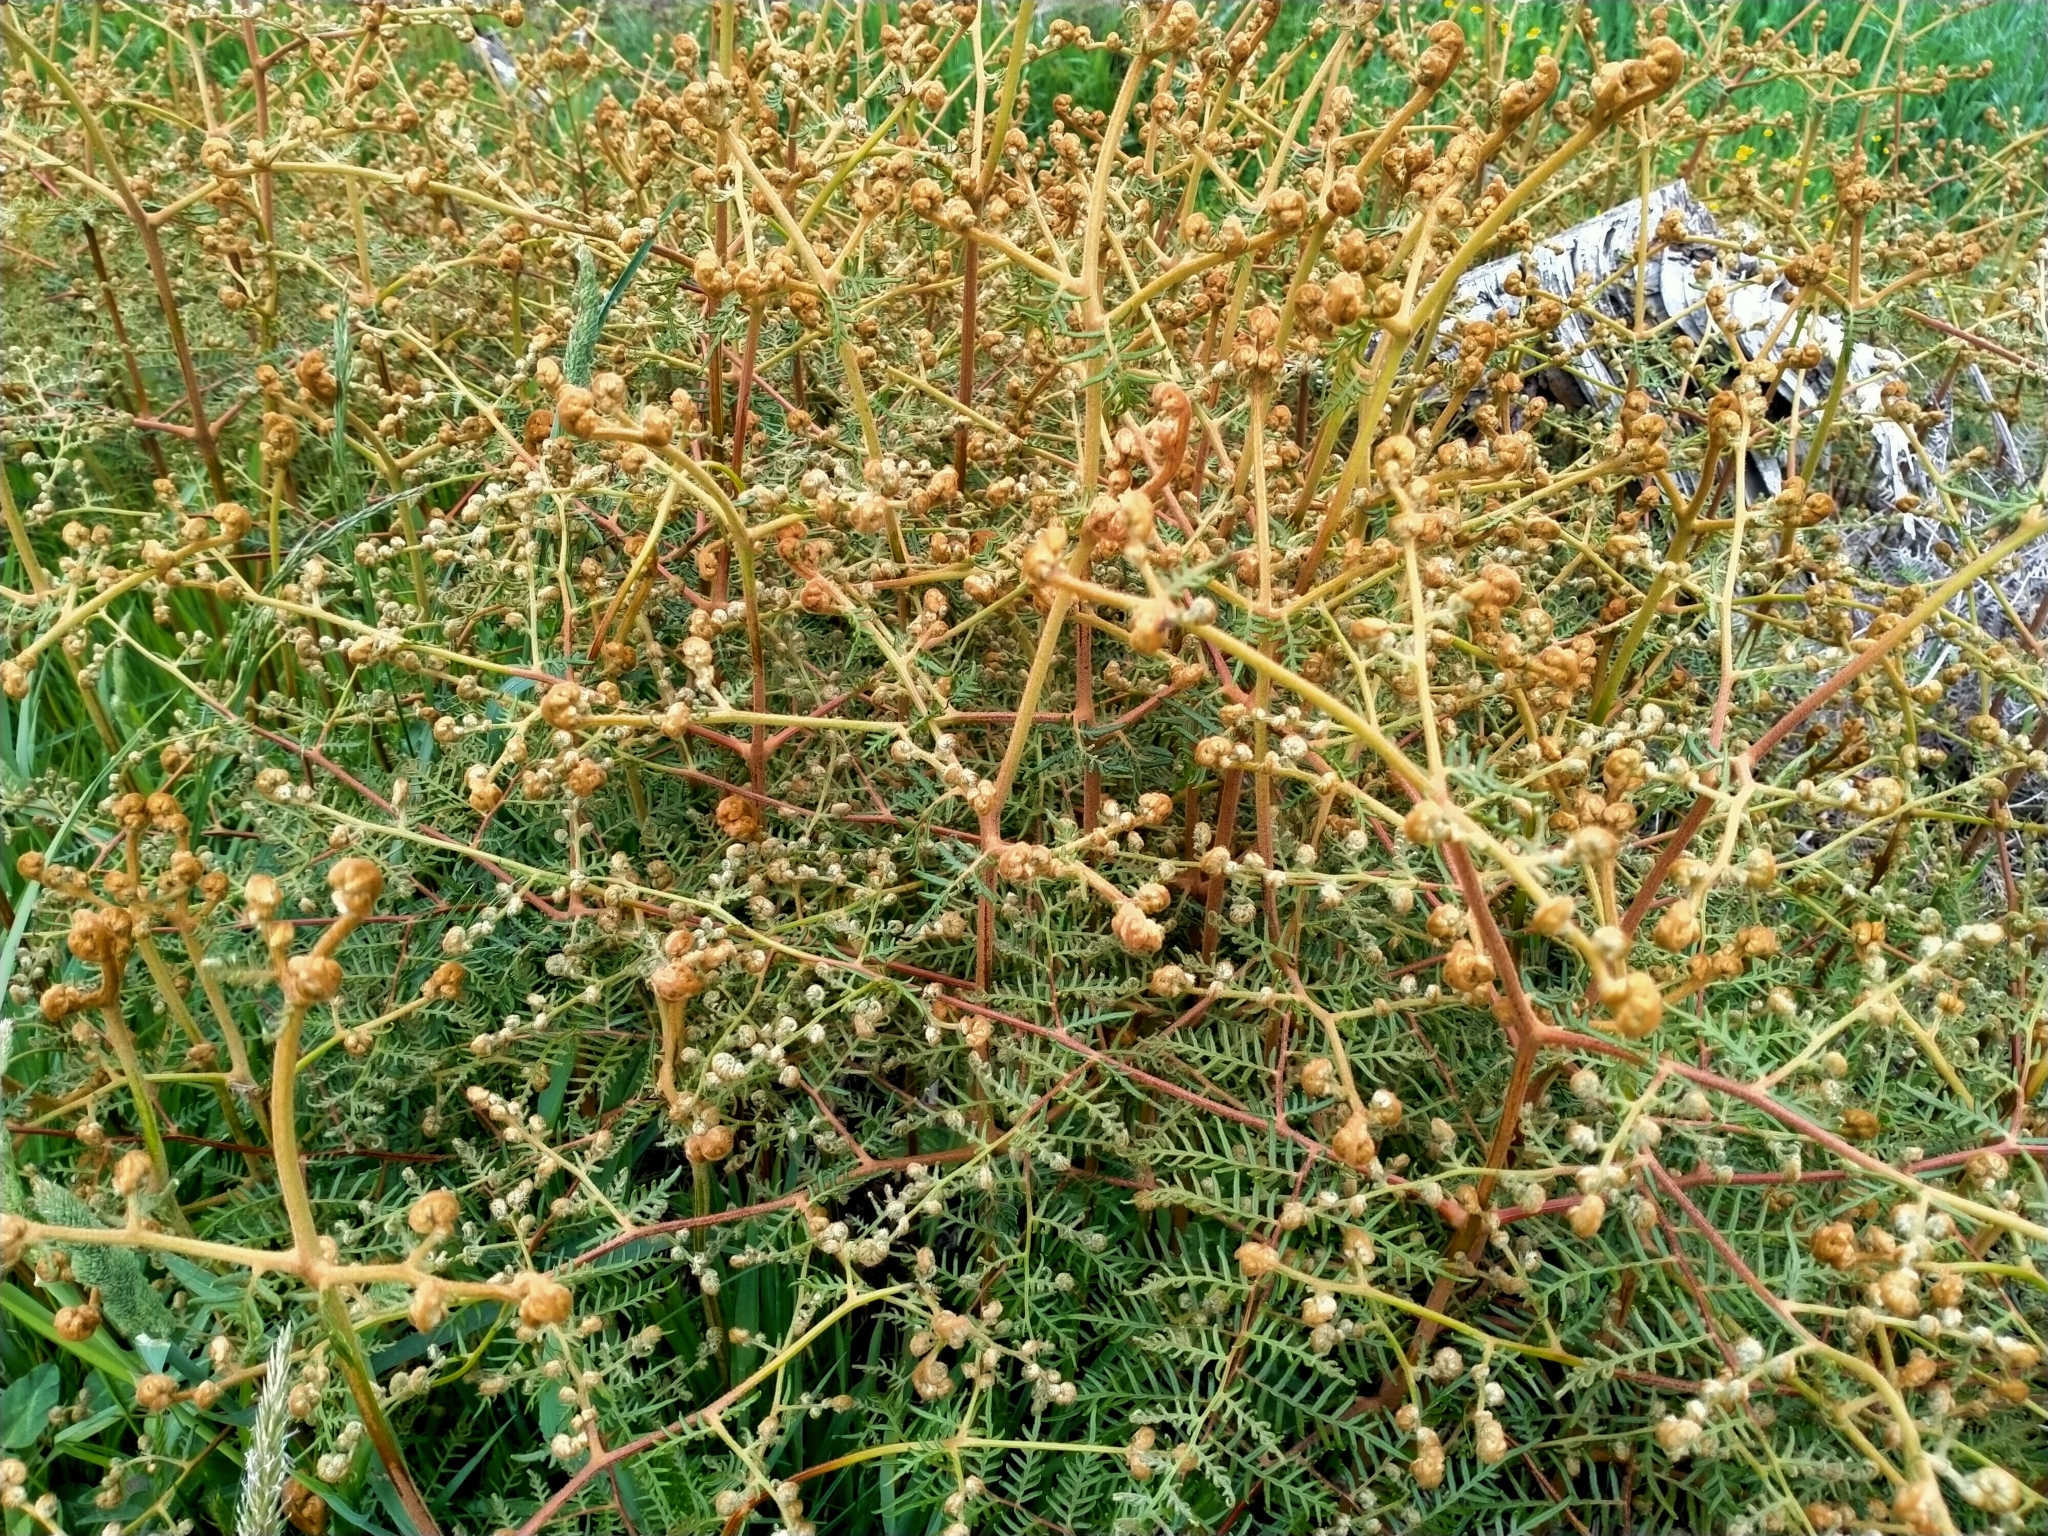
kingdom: Plantae
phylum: Tracheophyta
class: Polypodiopsida
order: Polypodiales
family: Dennstaedtiaceae
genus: Pteridium
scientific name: Pteridium esculentum
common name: Bracken fern
